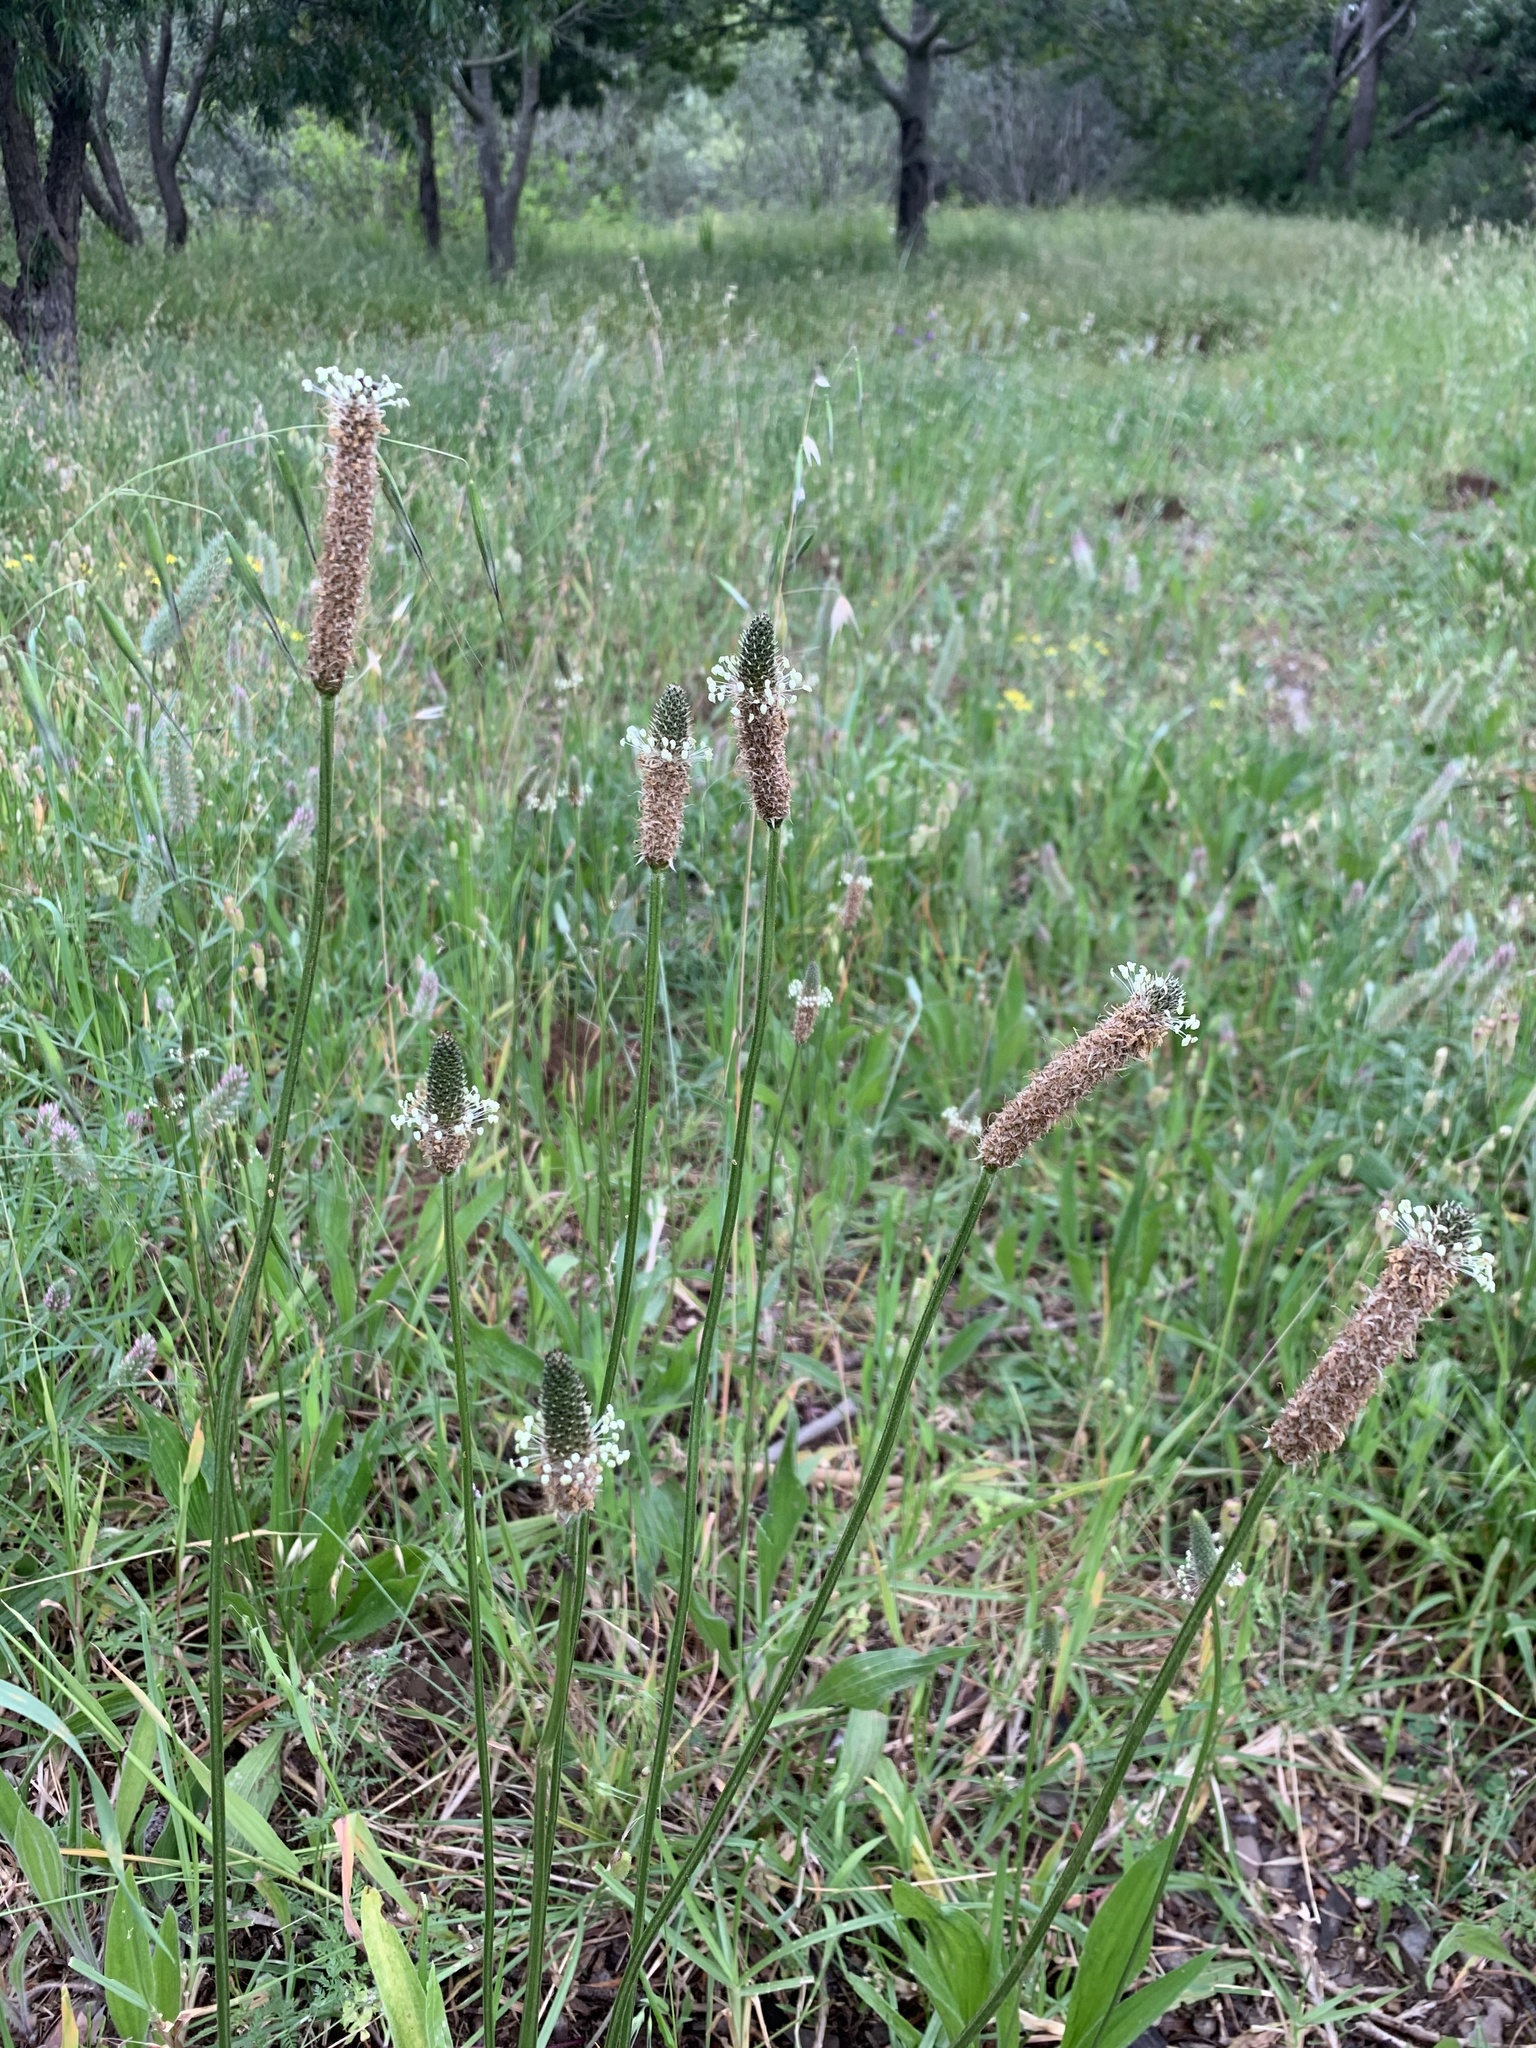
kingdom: Plantae
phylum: Tracheophyta
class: Magnoliopsida
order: Lamiales
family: Plantaginaceae
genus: Plantago
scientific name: Plantago lanceolata
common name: Ribwort plantain
